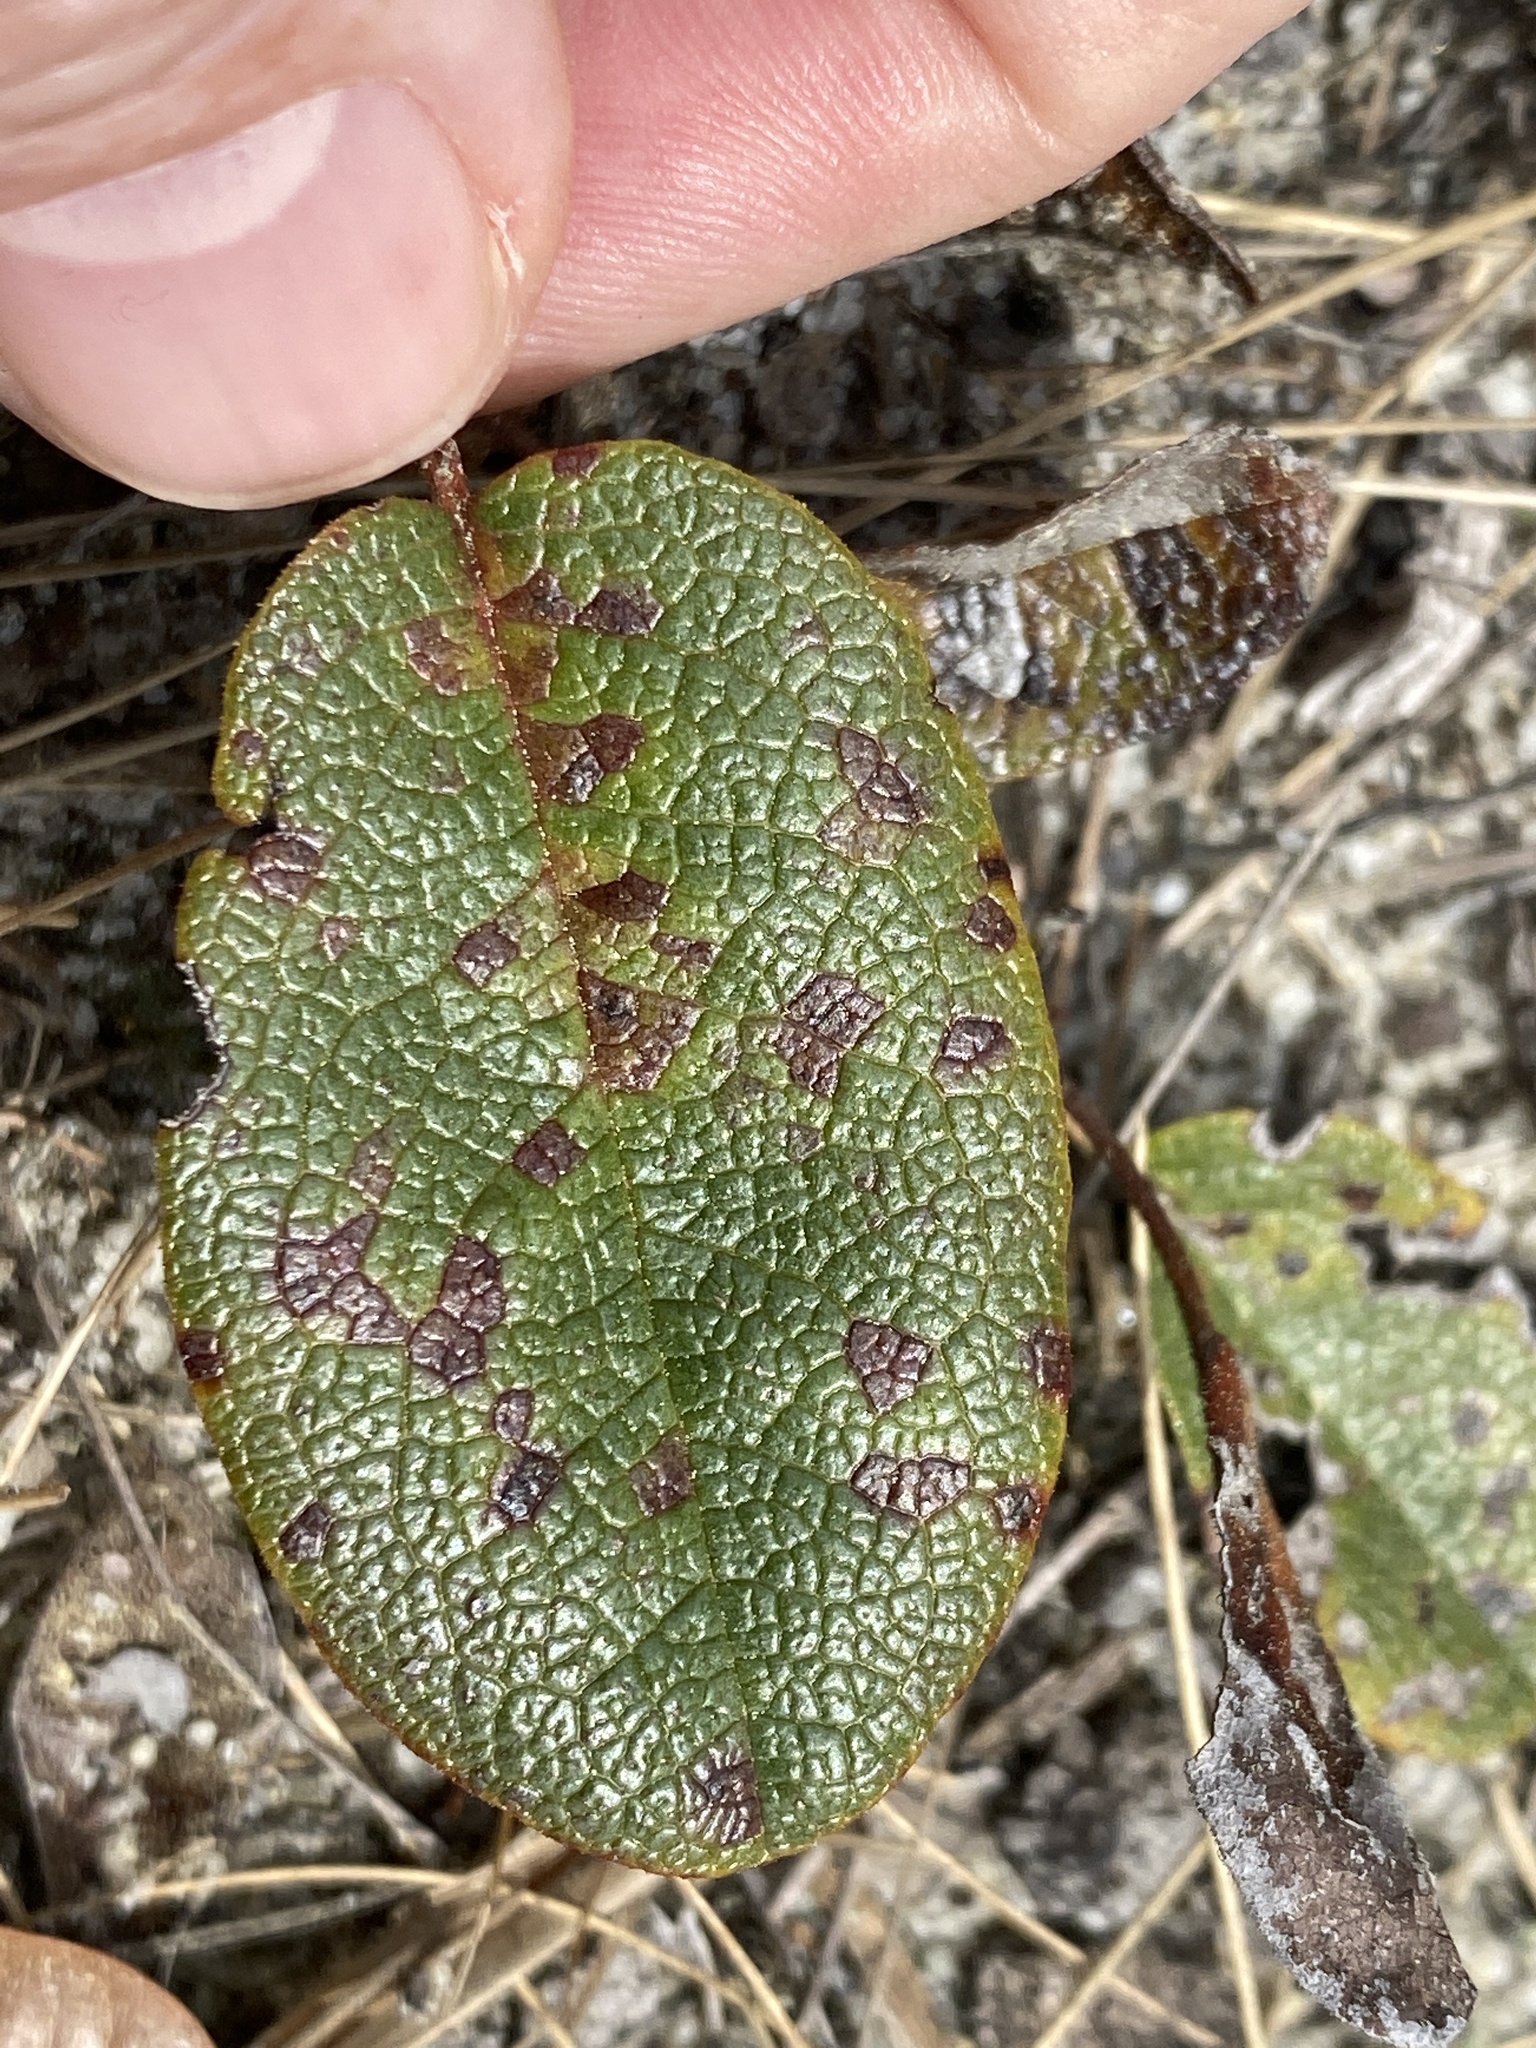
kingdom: Plantae
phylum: Tracheophyta
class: Magnoliopsida
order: Ericales
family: Ericaceae
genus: Epigaea
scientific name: Epigaea repens
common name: Gravelroot
